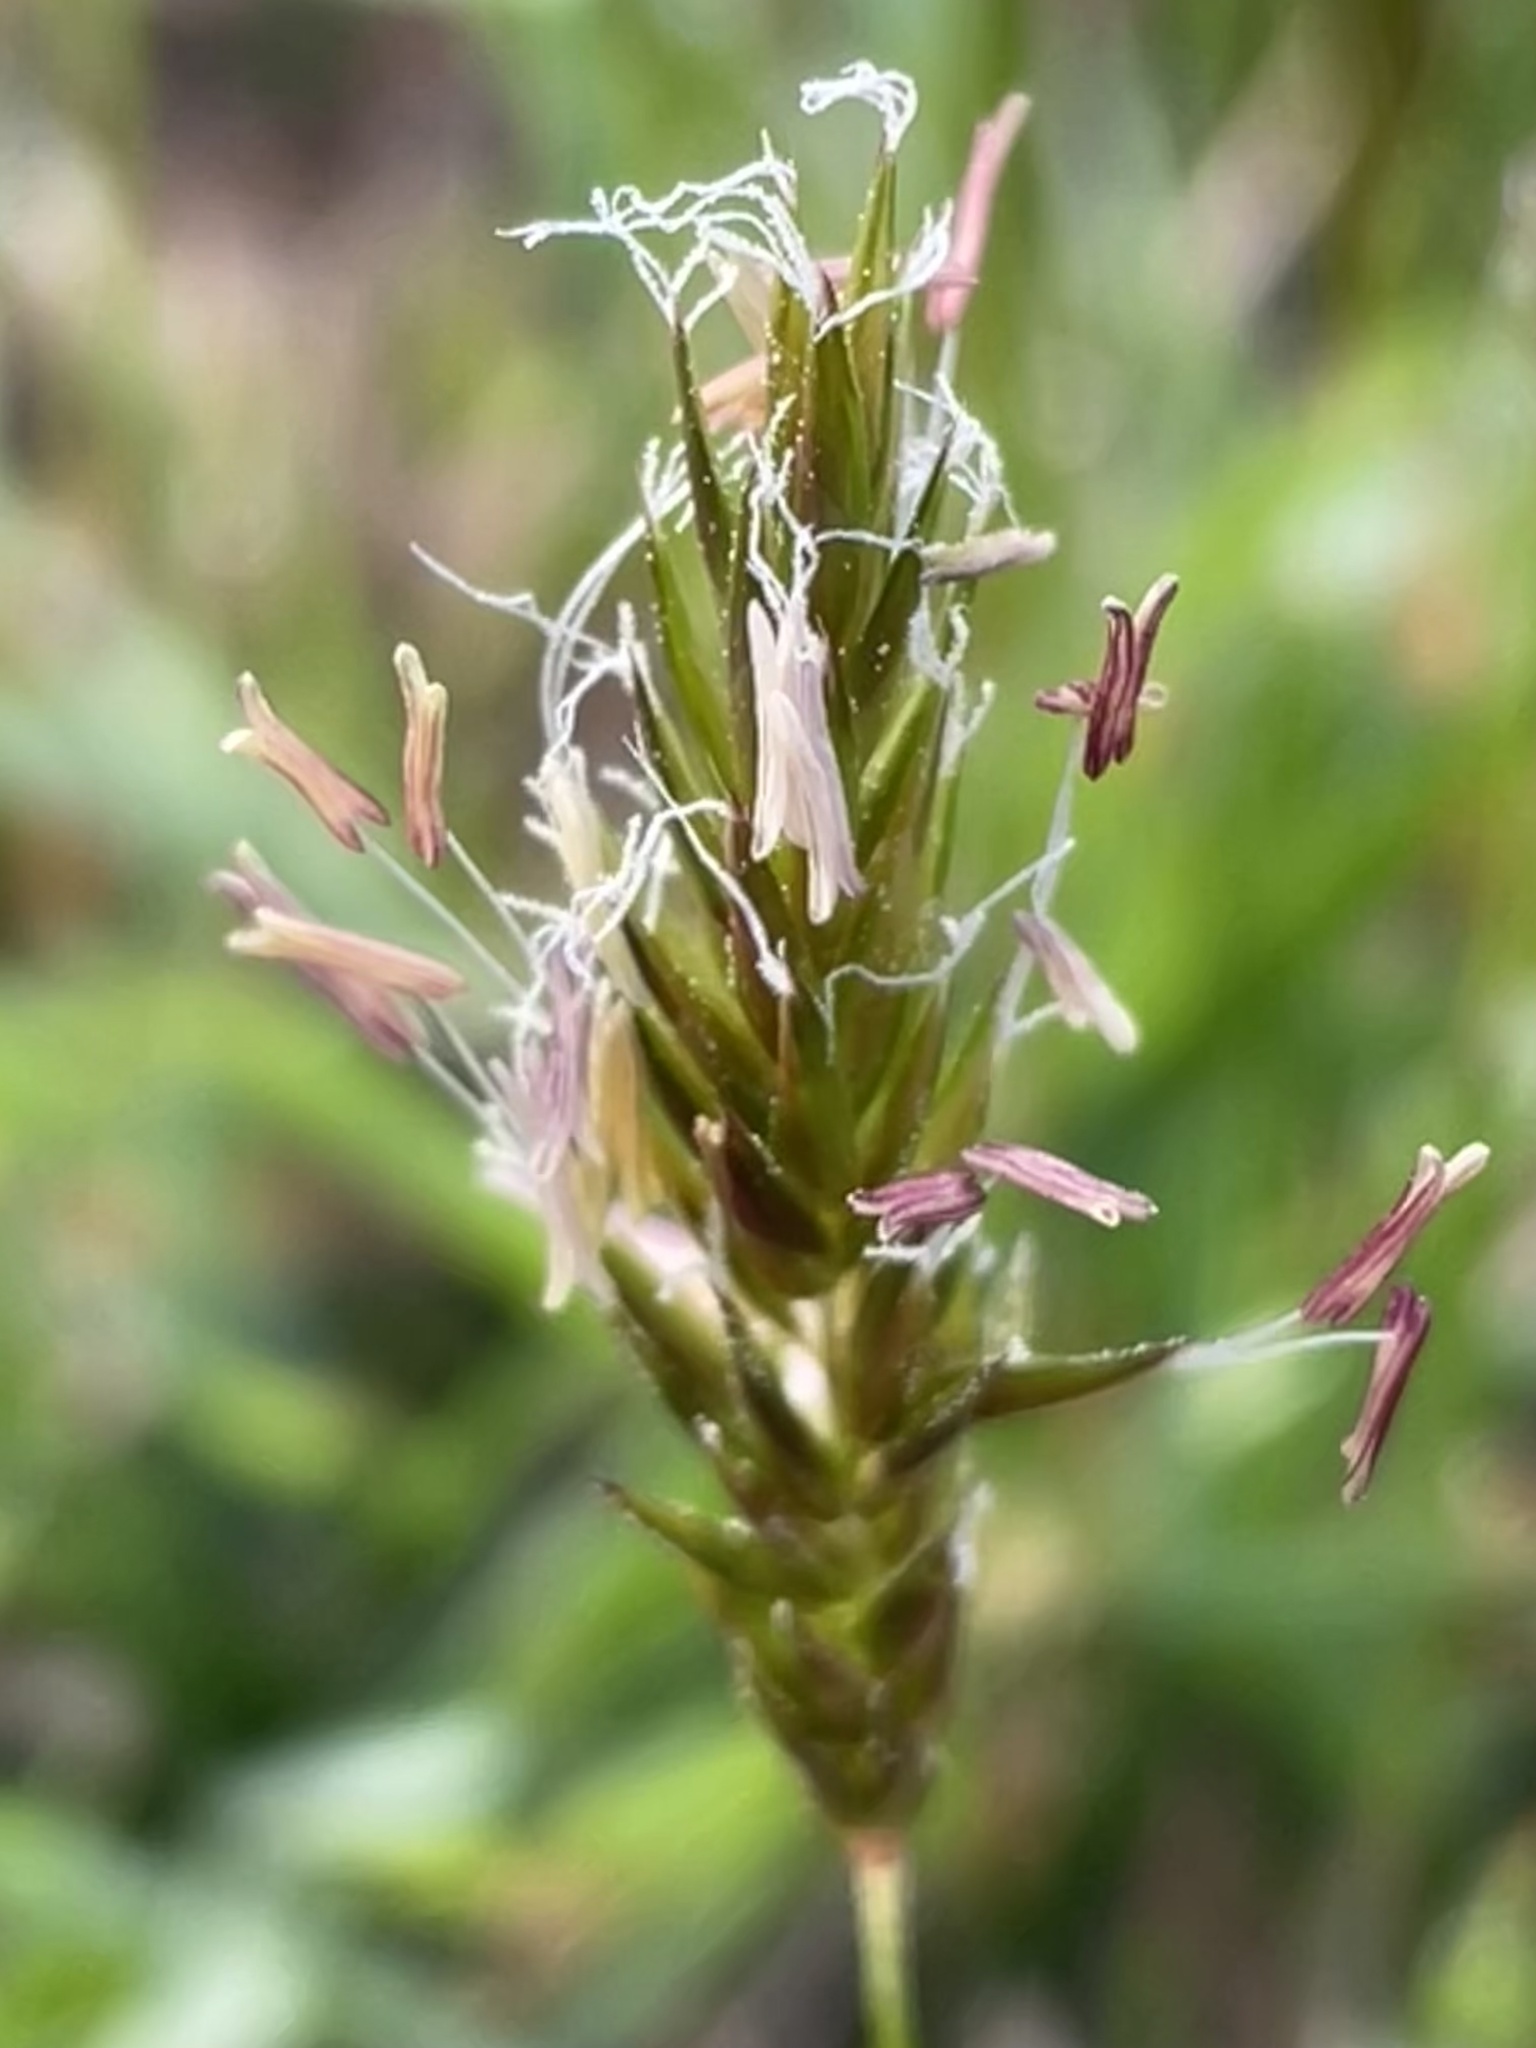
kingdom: Plantae
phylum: Tracheophyta
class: Liliopsida
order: Poales
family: Poaceae
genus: Anthoxanthum
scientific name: Anthoxanthum odoratum
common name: Sweet vernalgrass
